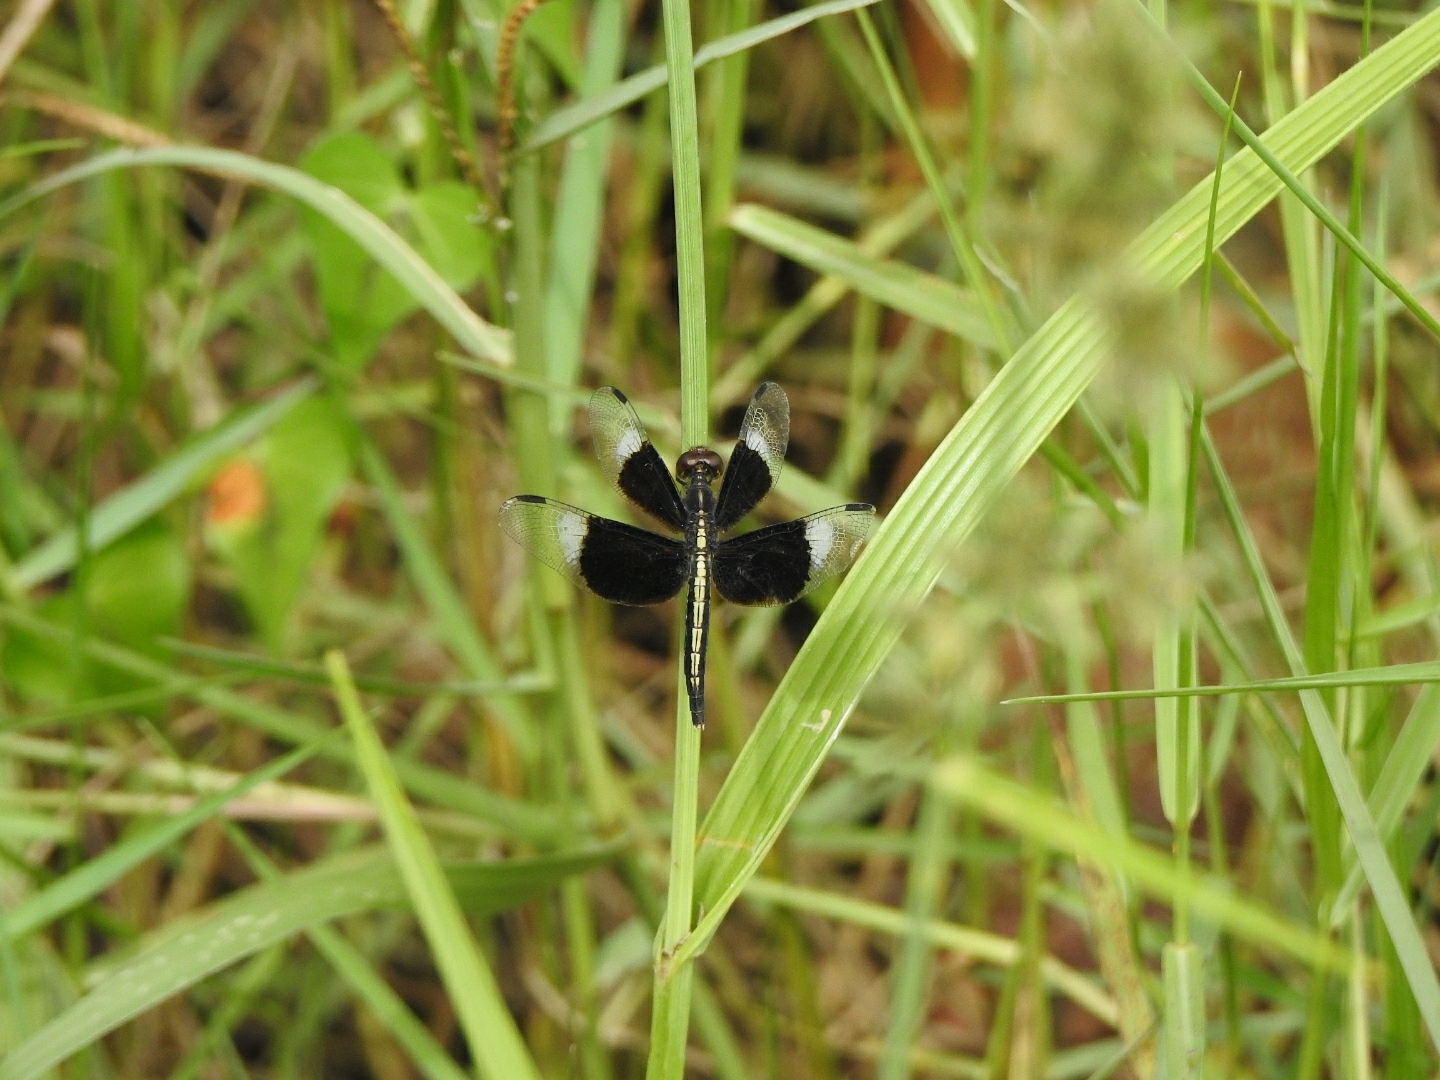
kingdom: Animalia
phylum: Arthropoda
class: Insecta
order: Odonata
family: Libellulidae
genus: Neurothemis
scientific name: Neurothemis tullia
